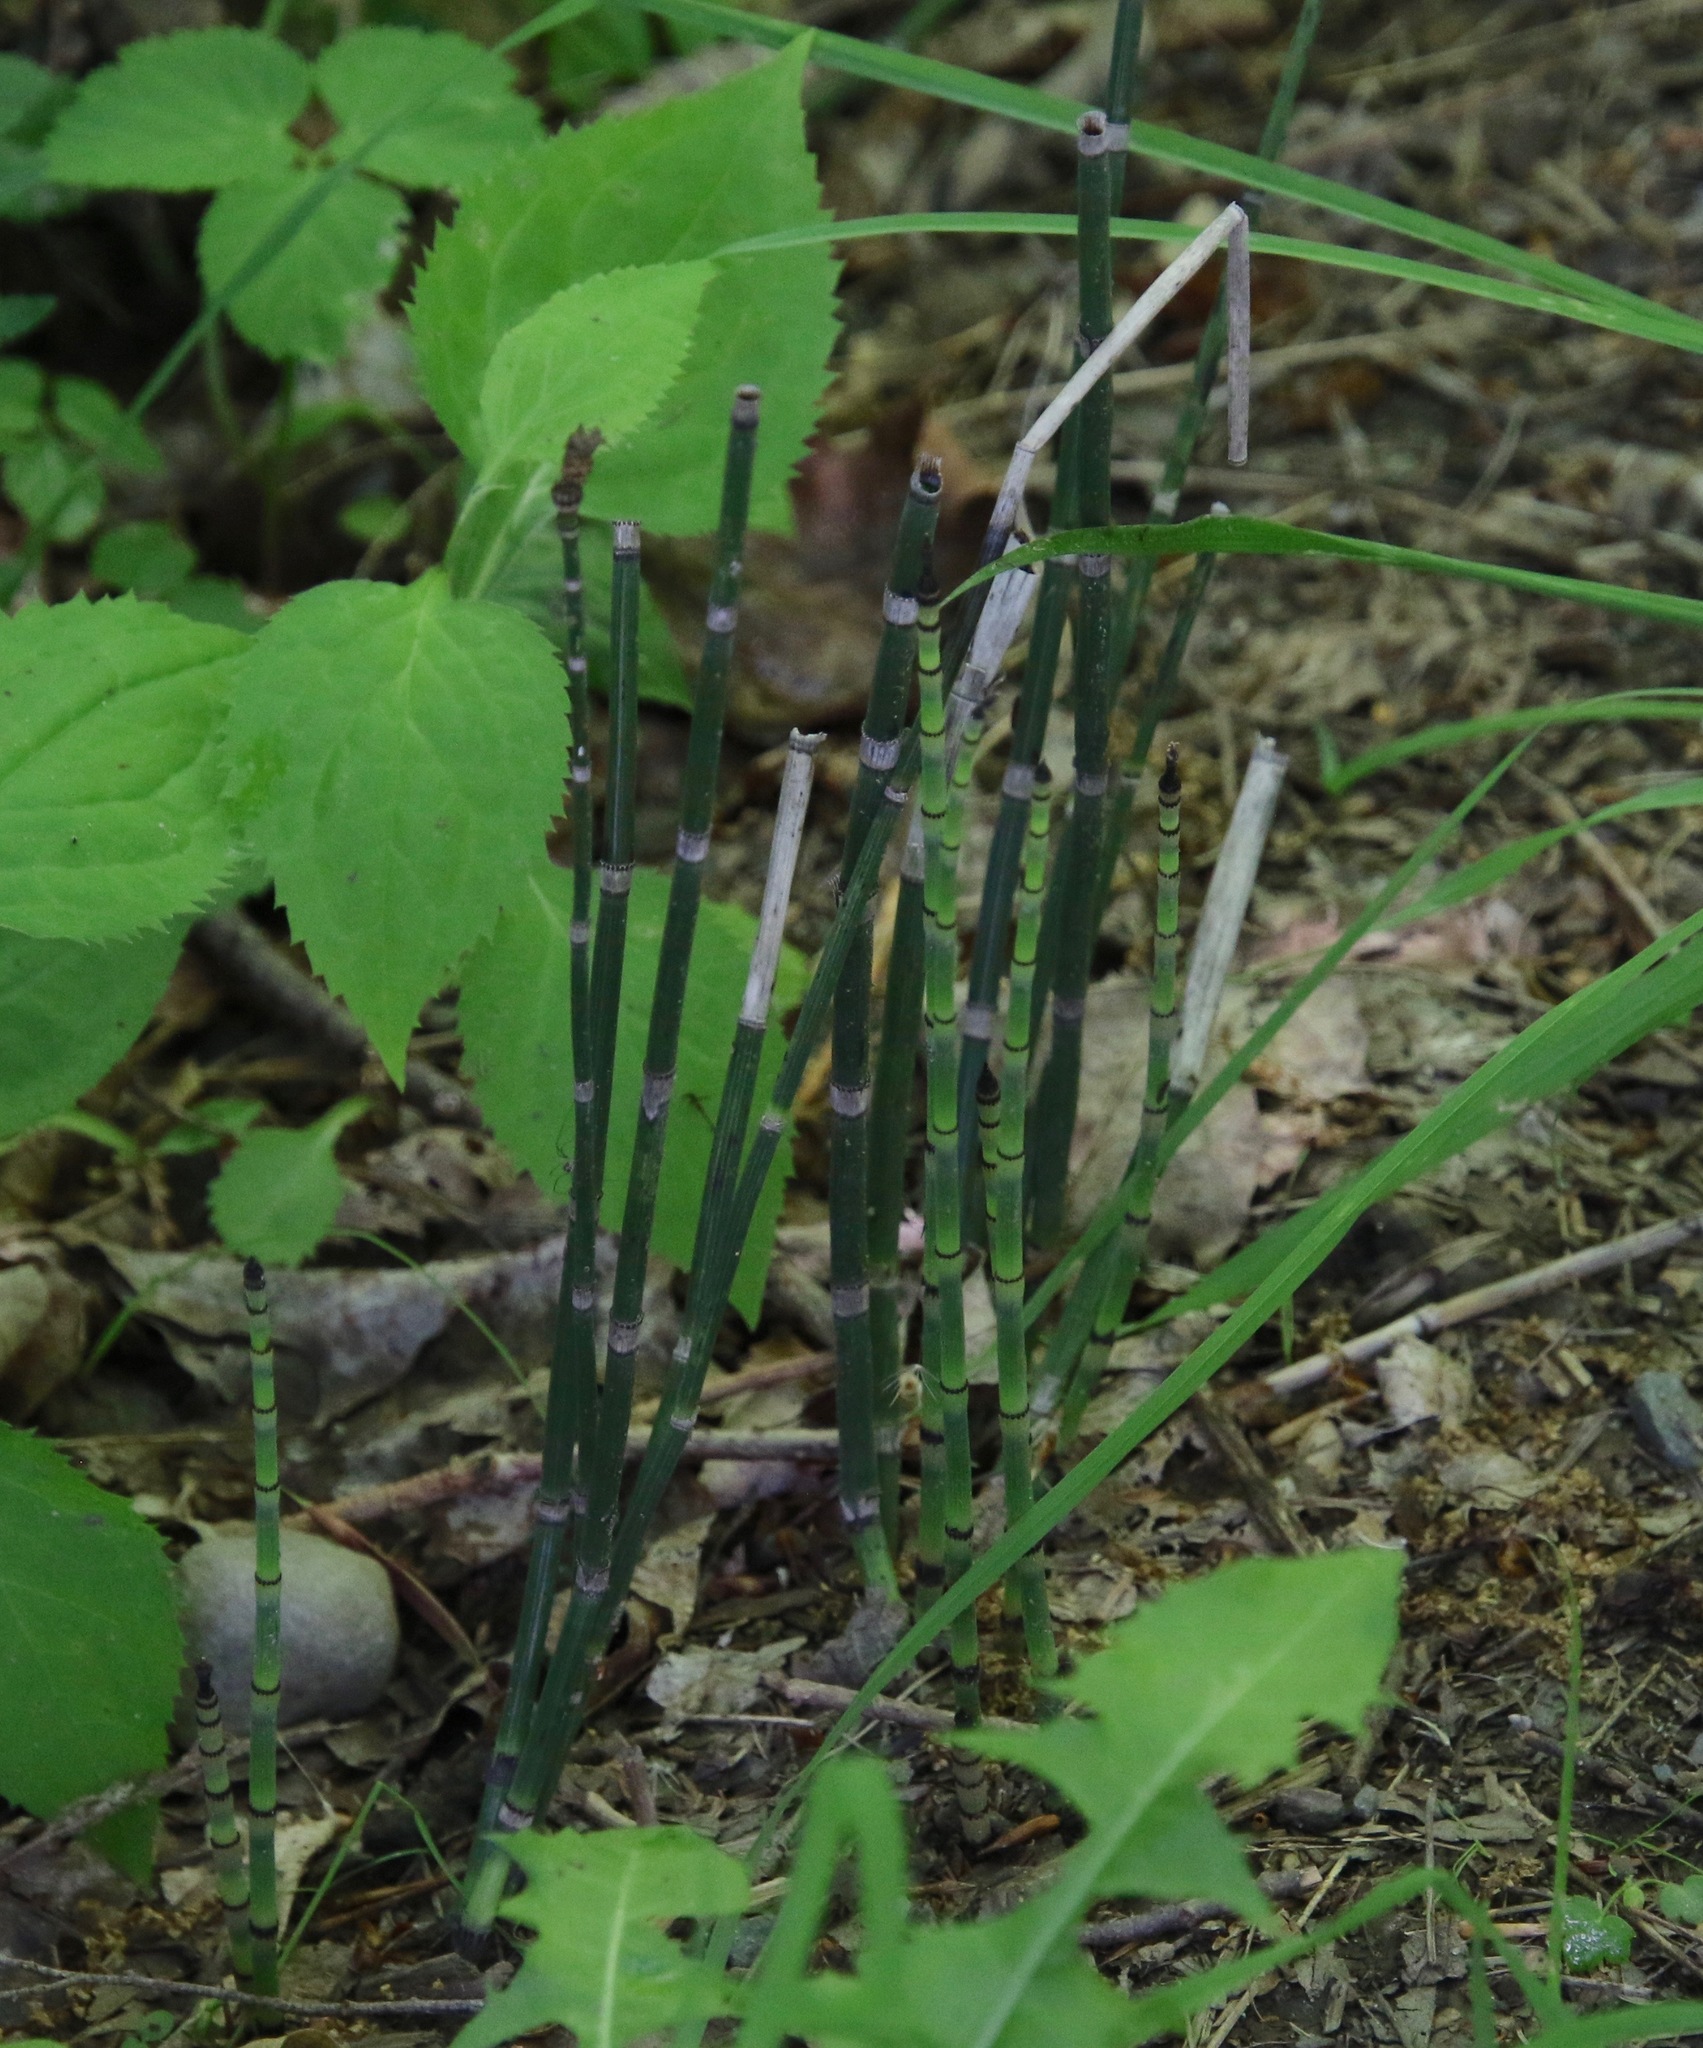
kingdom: Plantae
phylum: Tracheophyta
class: Polypodiopsida
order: Equisetales
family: Equisetaceae
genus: Equisetum
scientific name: Equisetum hyemale
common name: Rough horsetail
